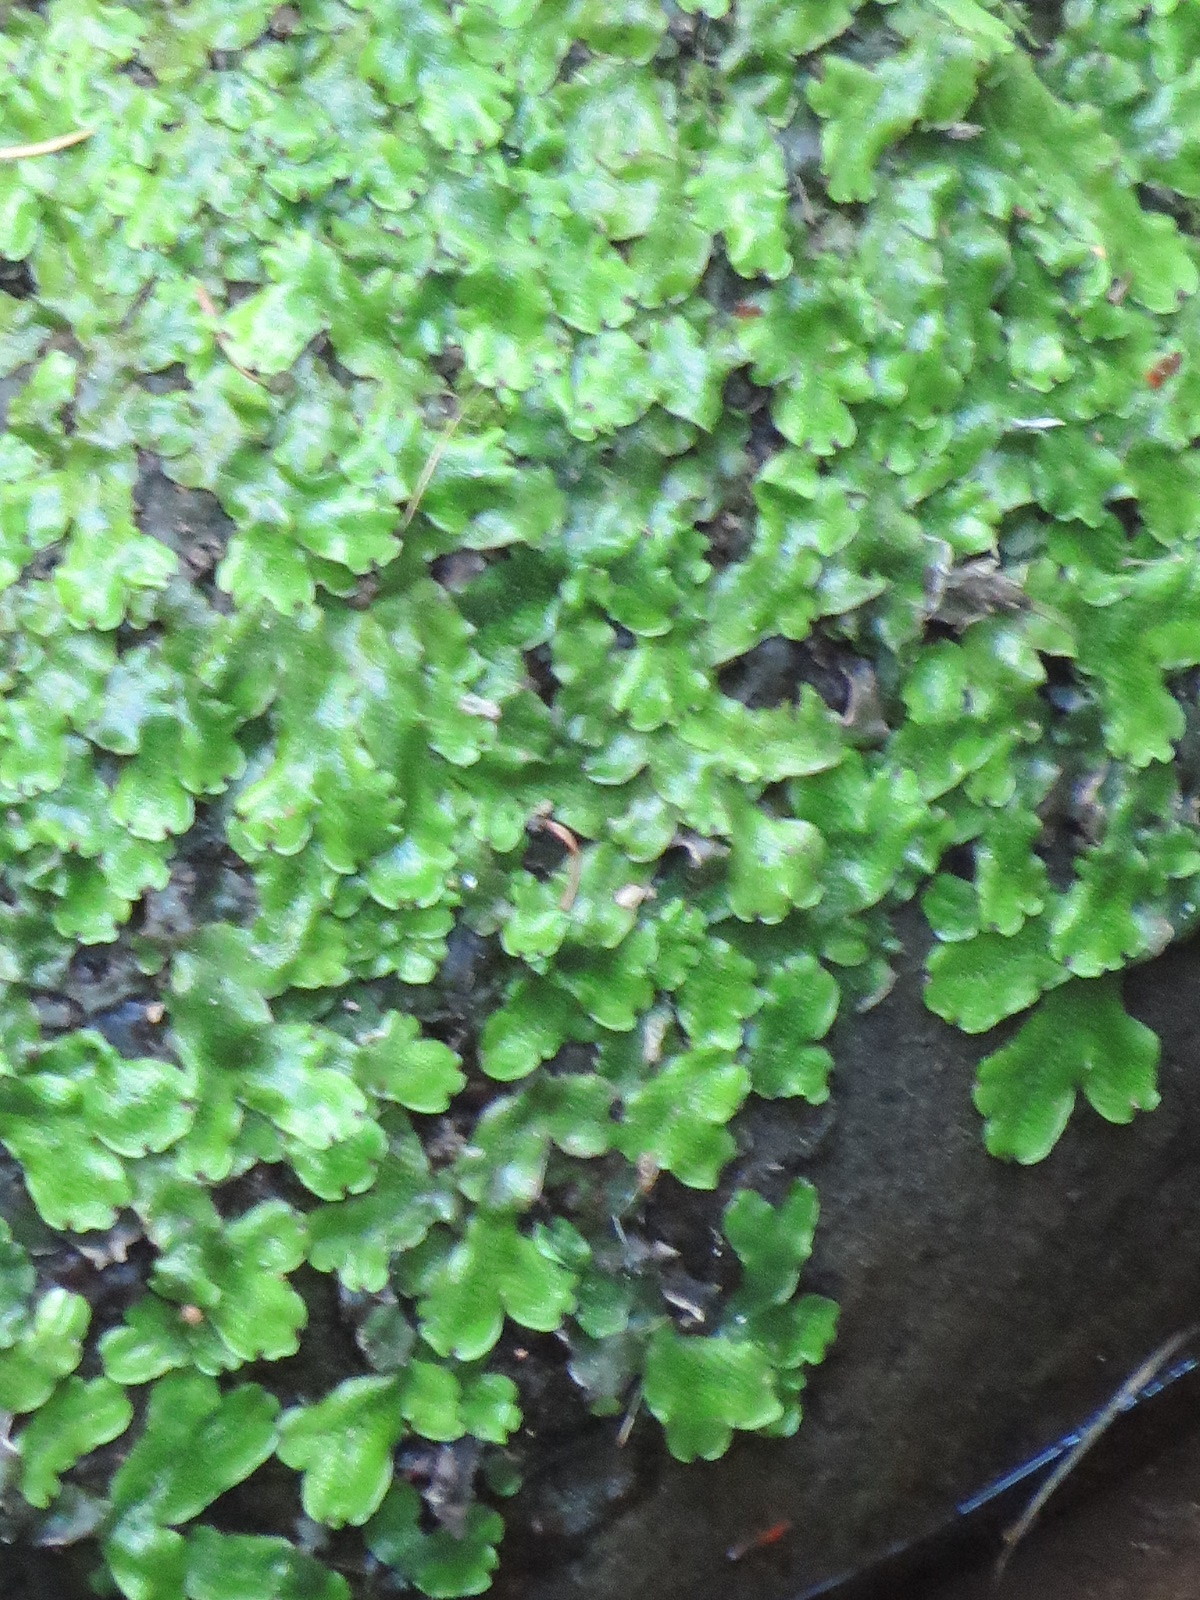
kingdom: Plantae
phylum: Marchantiophyta
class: Marchantiopsida
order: Marchantiales
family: Conocephalaceae
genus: Conocephalum
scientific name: Conocephalum salebrosum
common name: Cat-tongue liverwort
